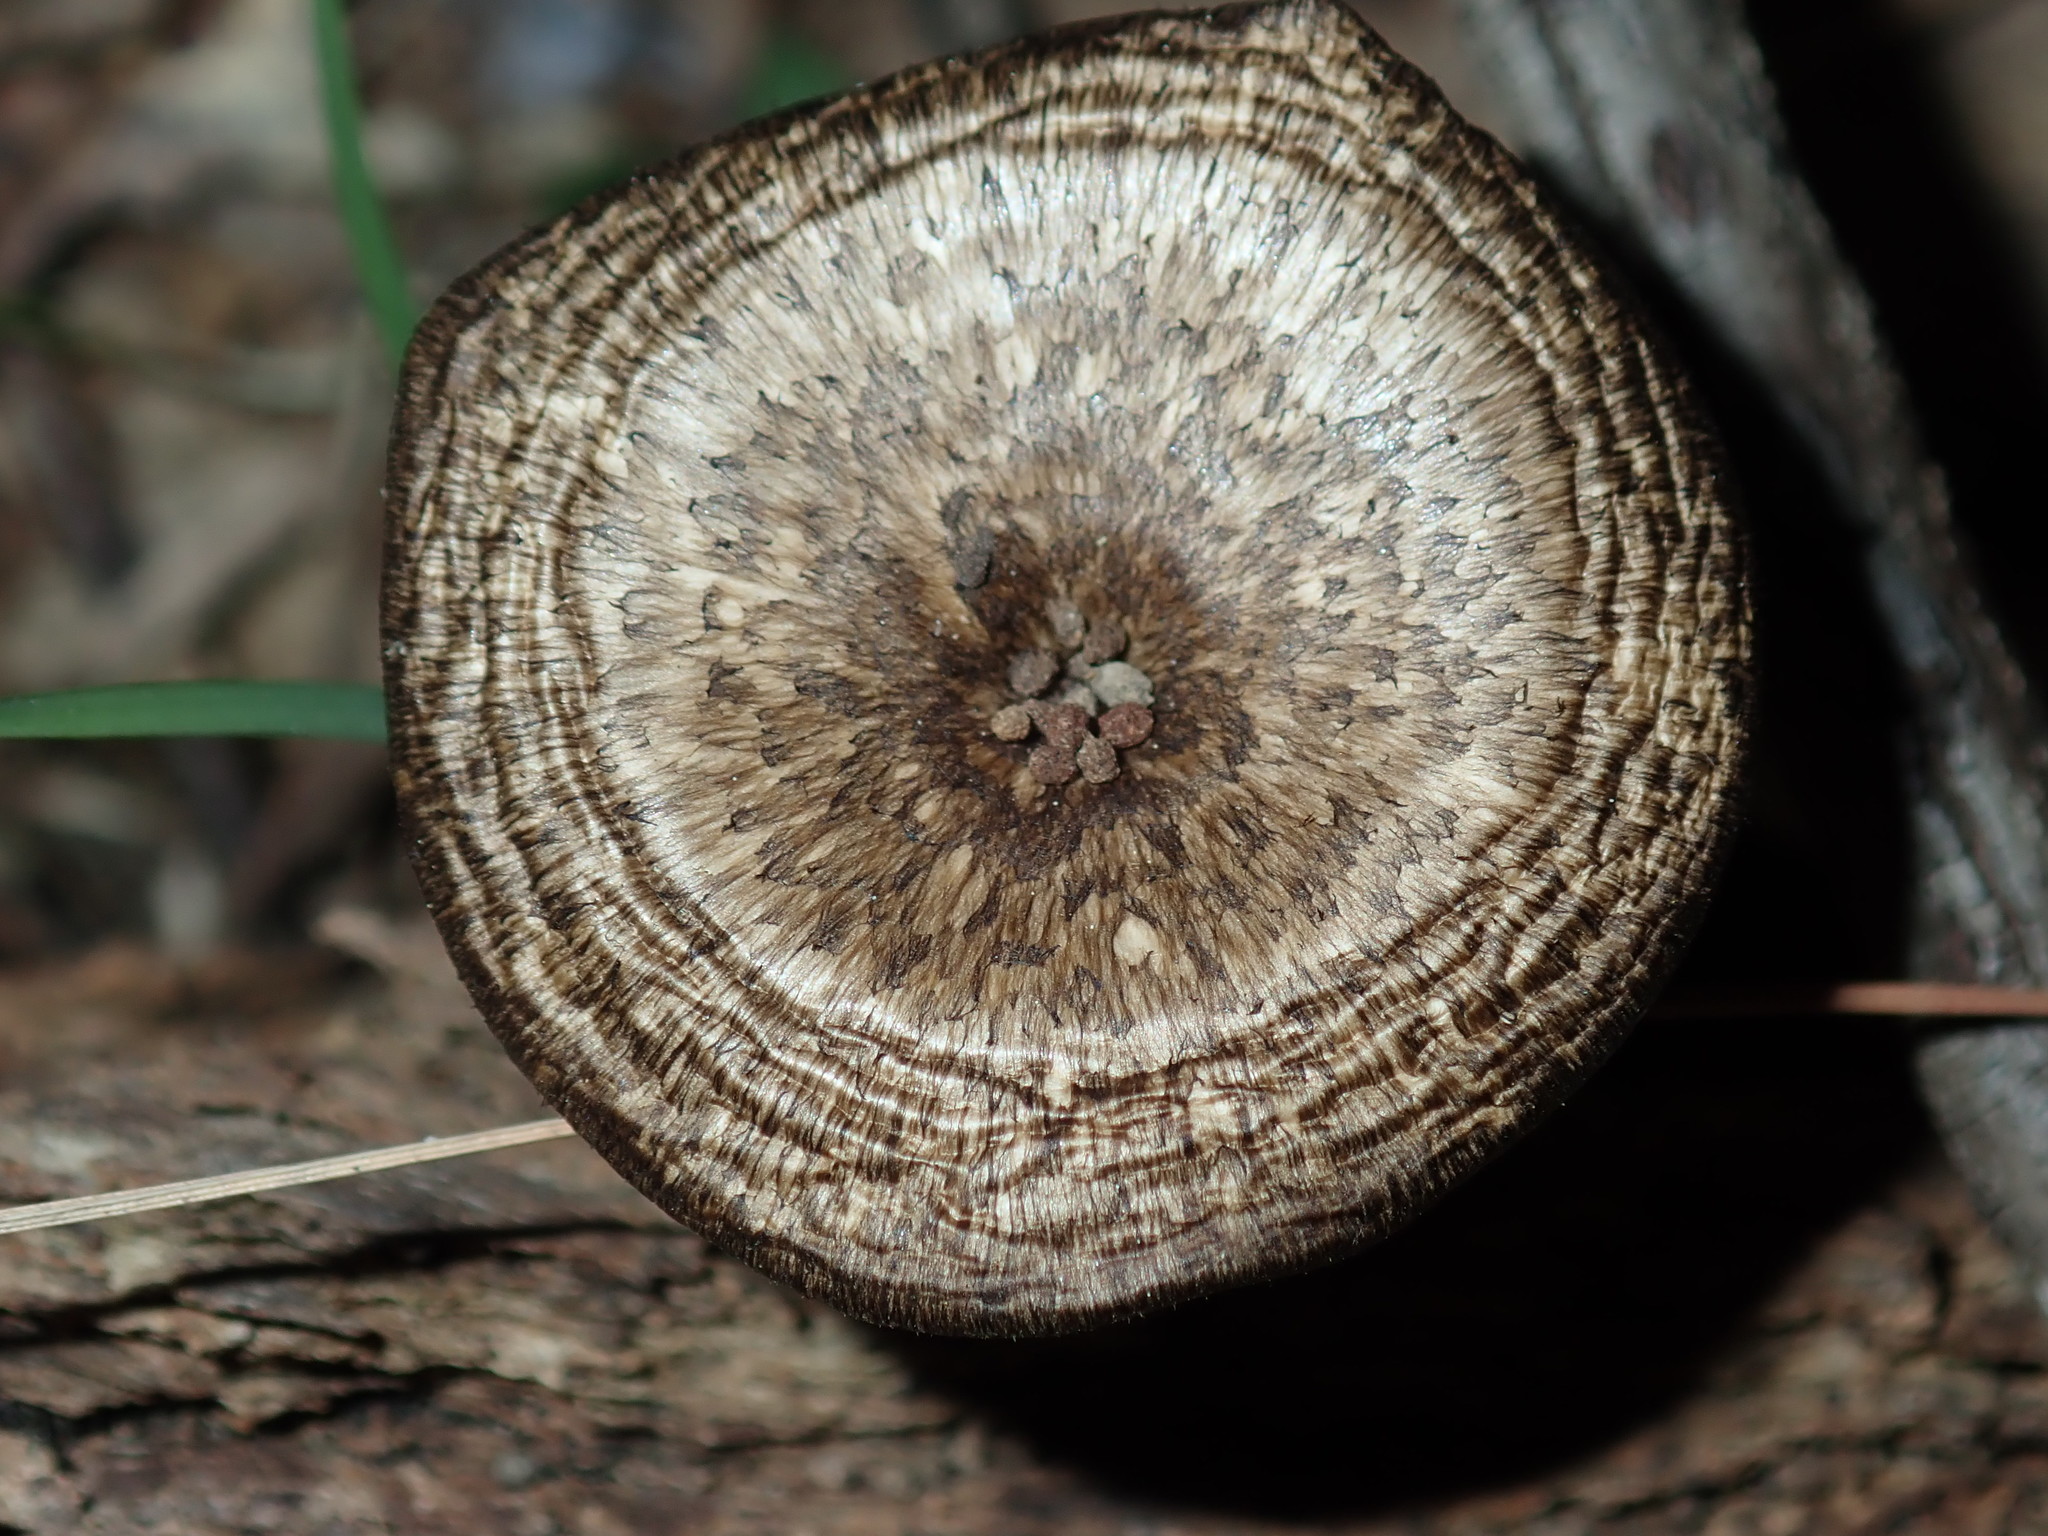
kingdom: Fungi
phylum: Basidiomycota
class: Agaricomycetes
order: Polyporales
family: Polyporaceae
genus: Lentinus
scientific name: Lentinus arcularius
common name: Spring polypore
